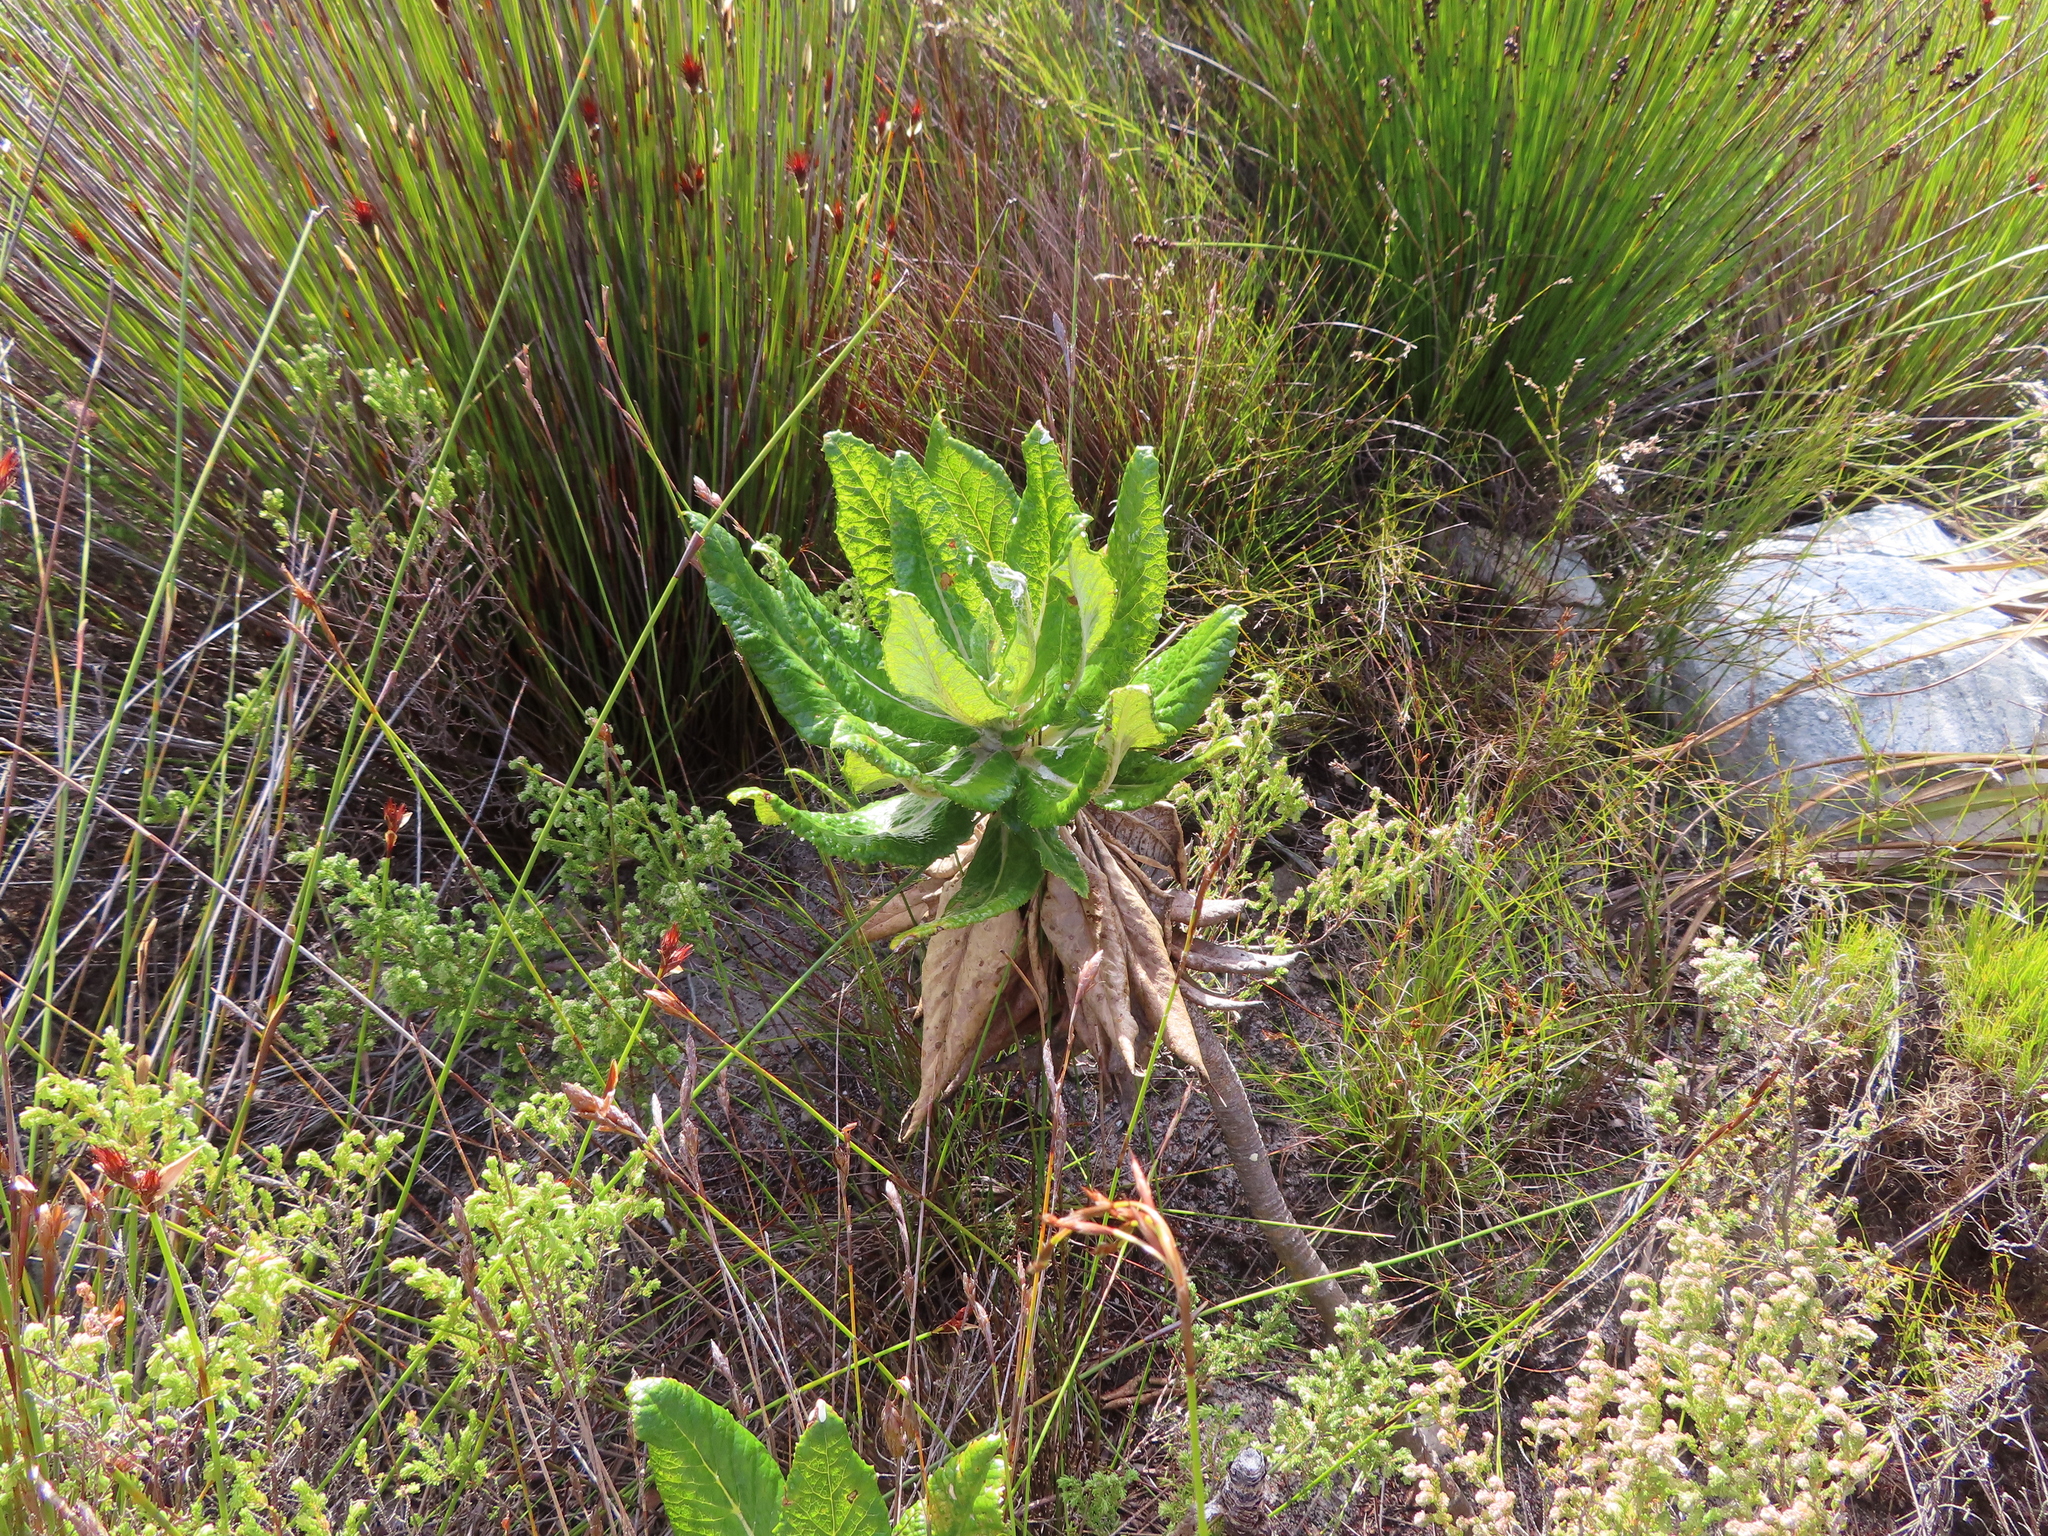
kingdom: Plantae
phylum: Tracheophyta
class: Magnoliopsida
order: Apiales
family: Apiaceae
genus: Hermas
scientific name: Hermas villosa
